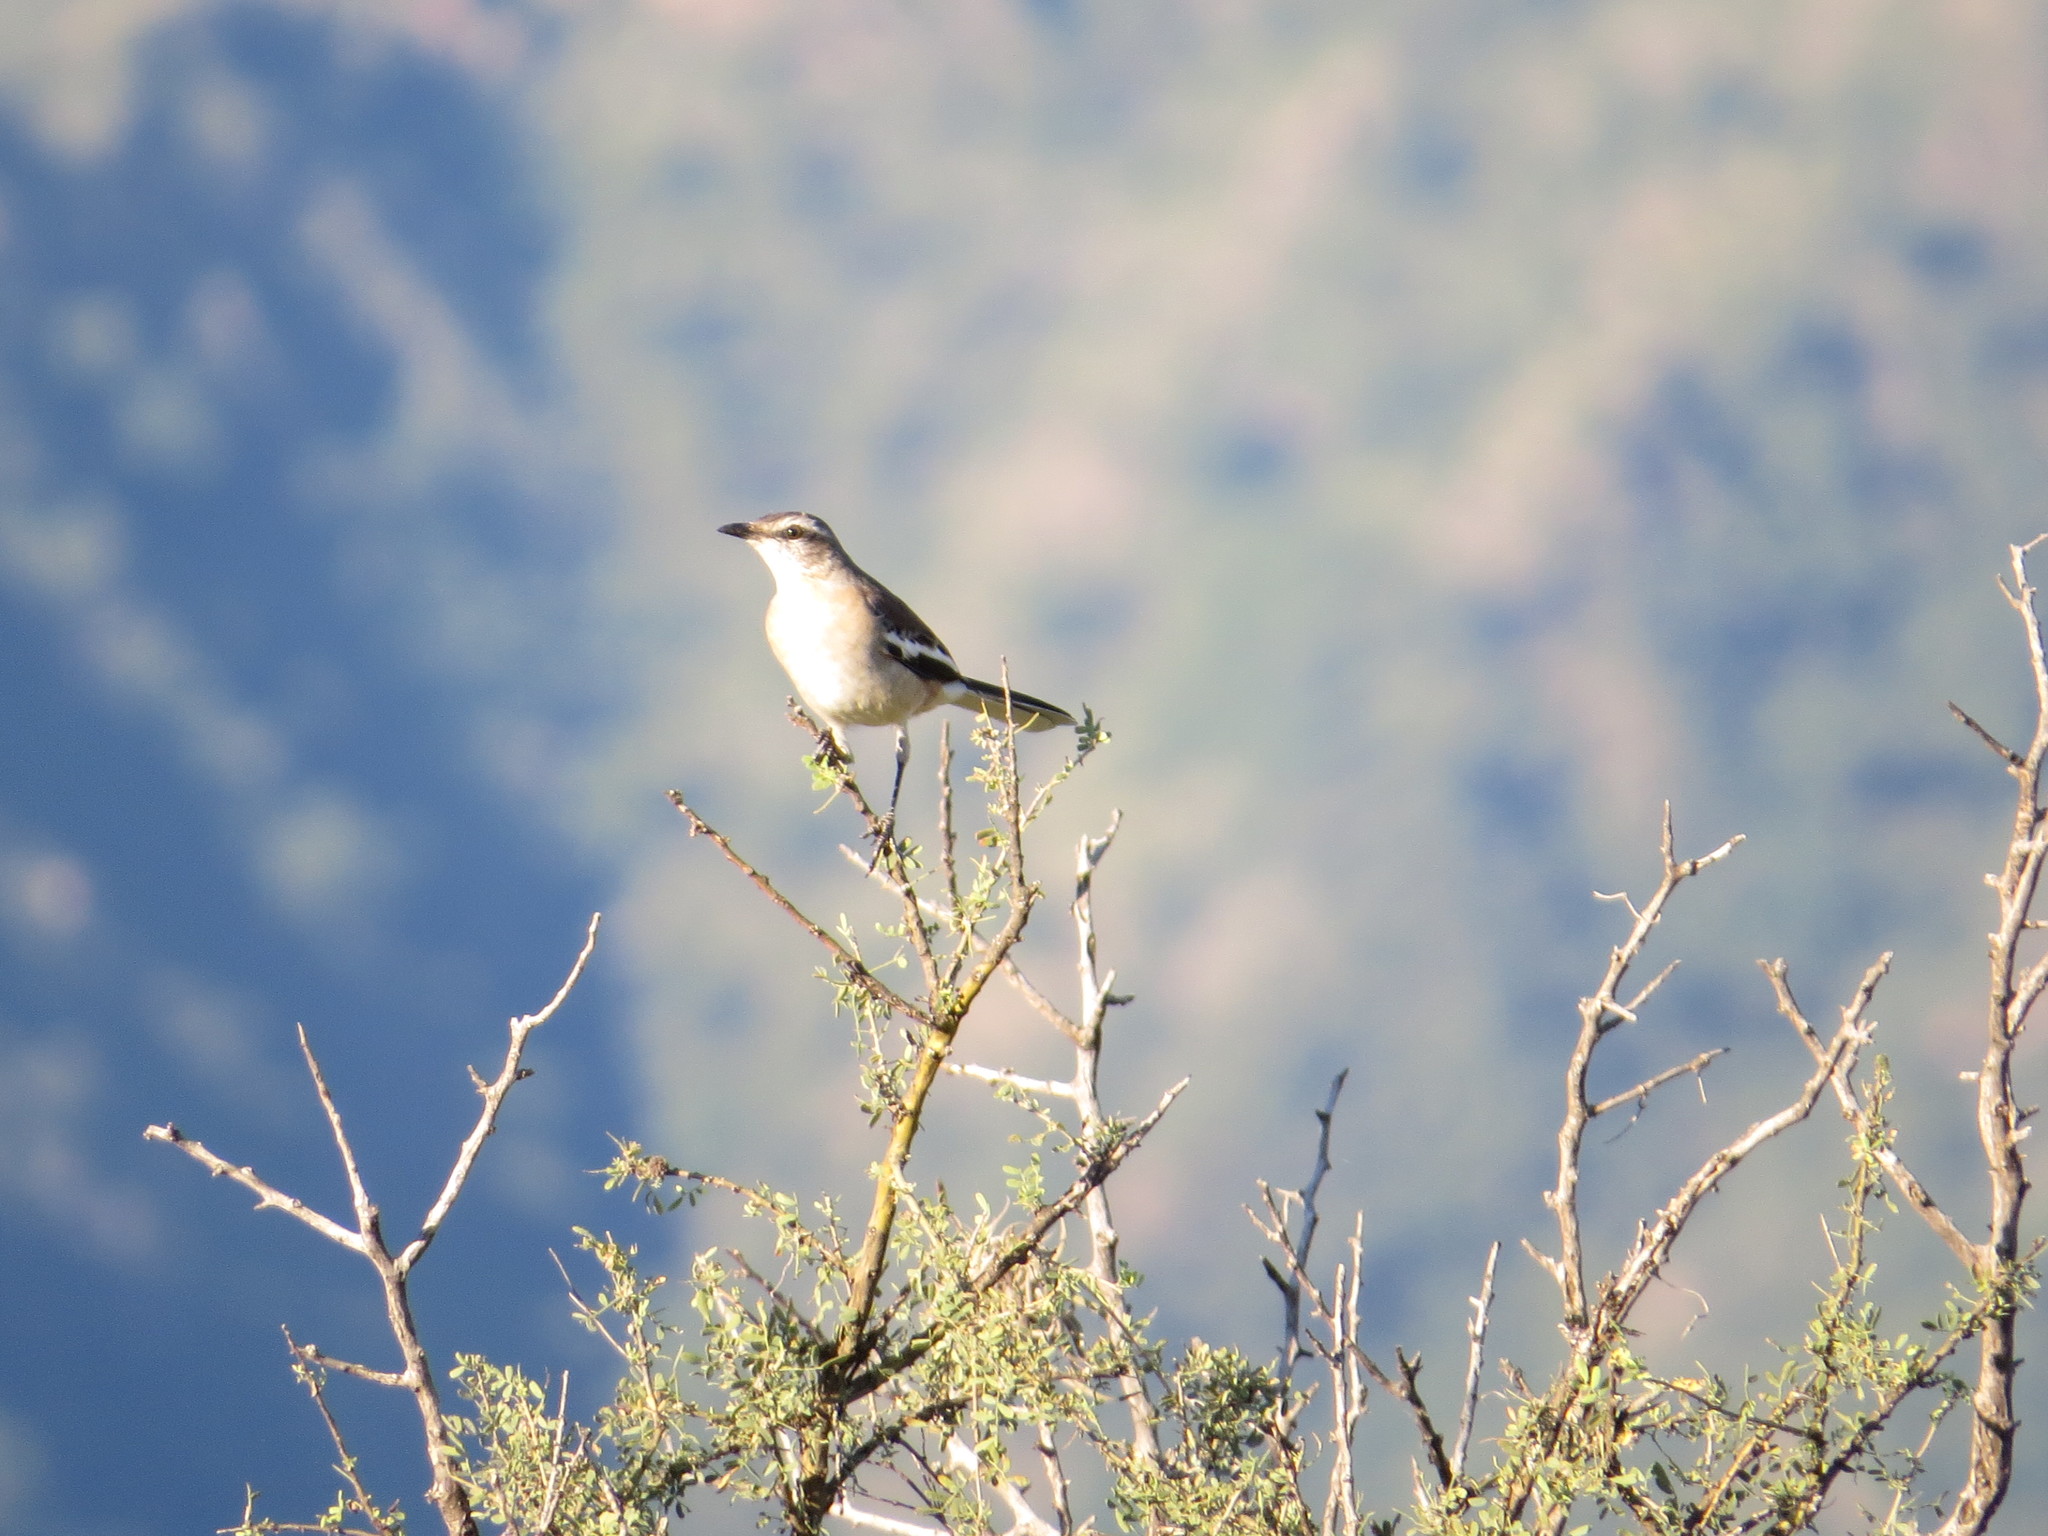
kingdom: Animalia
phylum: Chordata
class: Aves
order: Passeriformes
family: Mimidae
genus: Mimus
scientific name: Mimus triurus
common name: White-banded mockingbird
